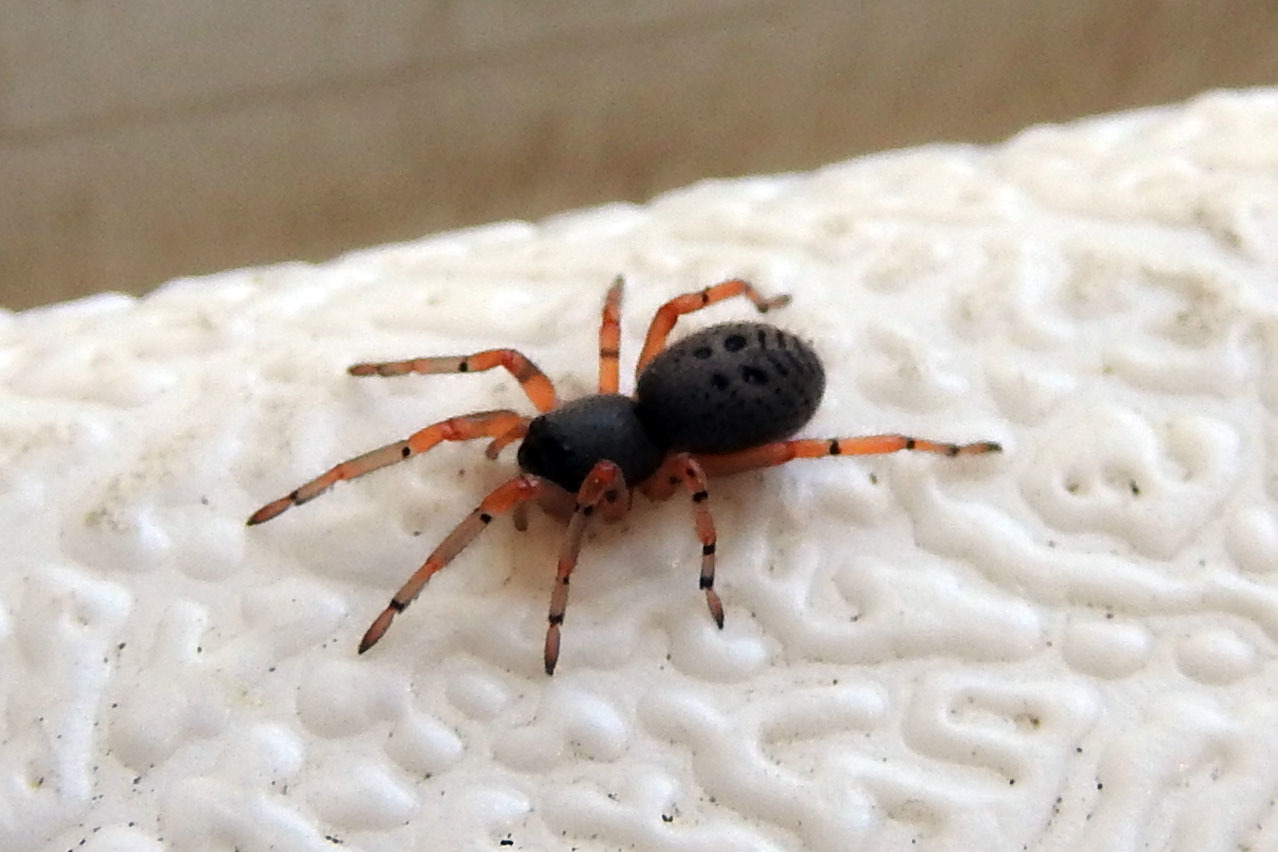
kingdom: Animalia
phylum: Arthropoda
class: Arachnida
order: Araneae
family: Trachelidae
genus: Trachelopachys
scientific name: Trachelopachys cingulipes
